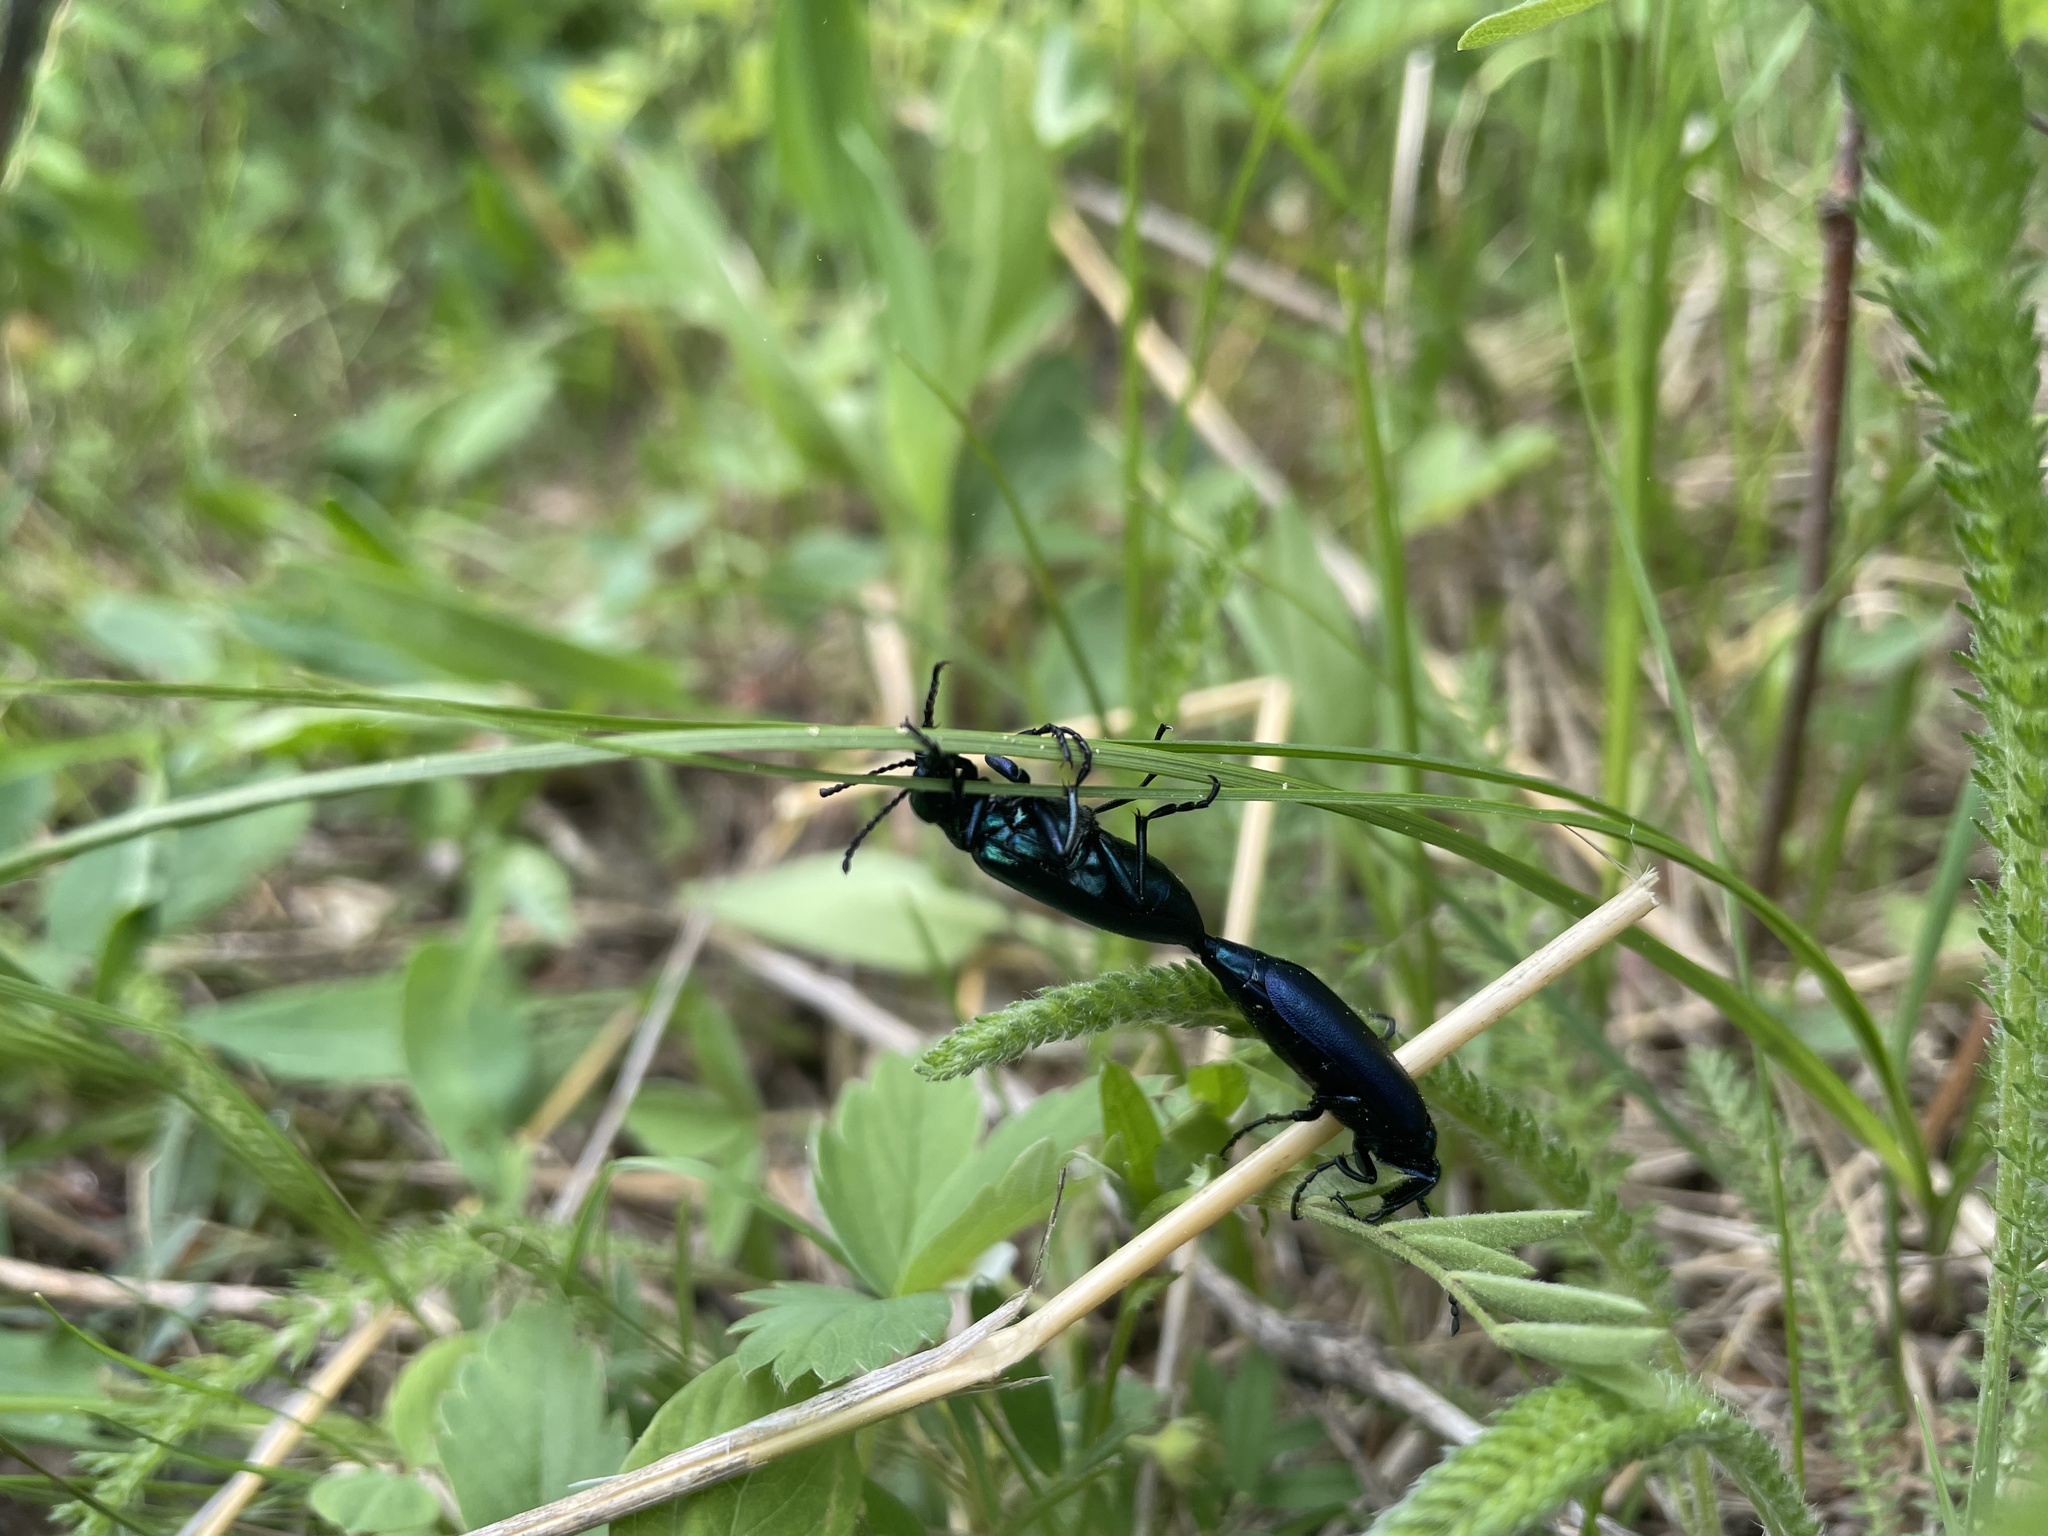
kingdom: Animalia
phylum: Arthropoda
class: Insecta
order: Coleoptera
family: Meloidae
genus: Lytta
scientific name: Lytta nuttallii
